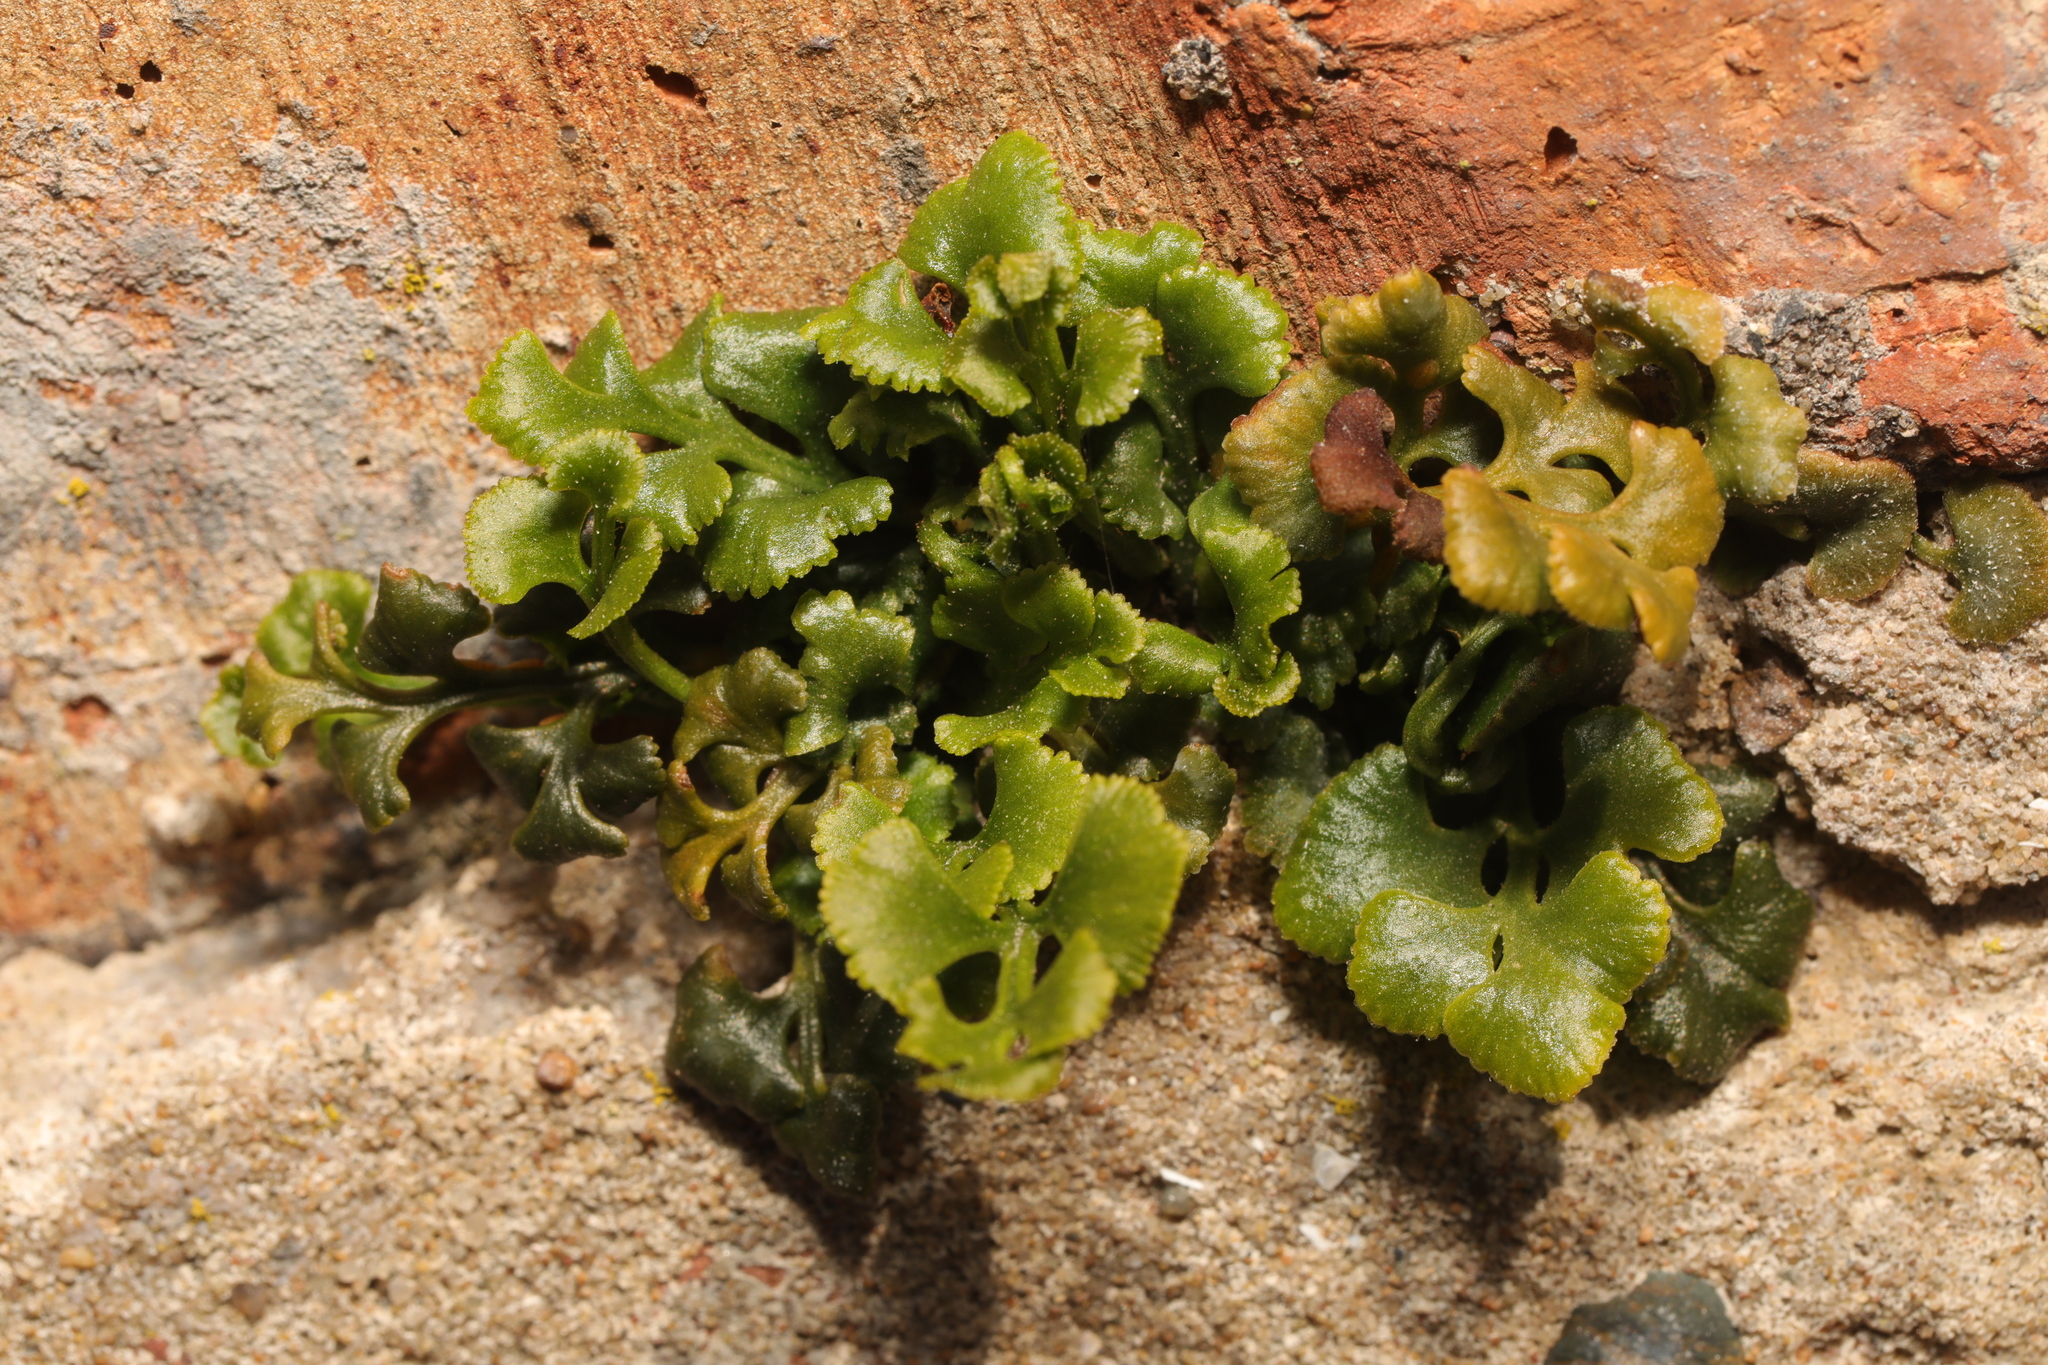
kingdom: Plantae
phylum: Tracheophyta
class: Polypodiopsida
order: Polypodiales
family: Aspleniaceae
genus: Asplenium
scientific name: Asplenium ruta-muraria
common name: Wall-rue
